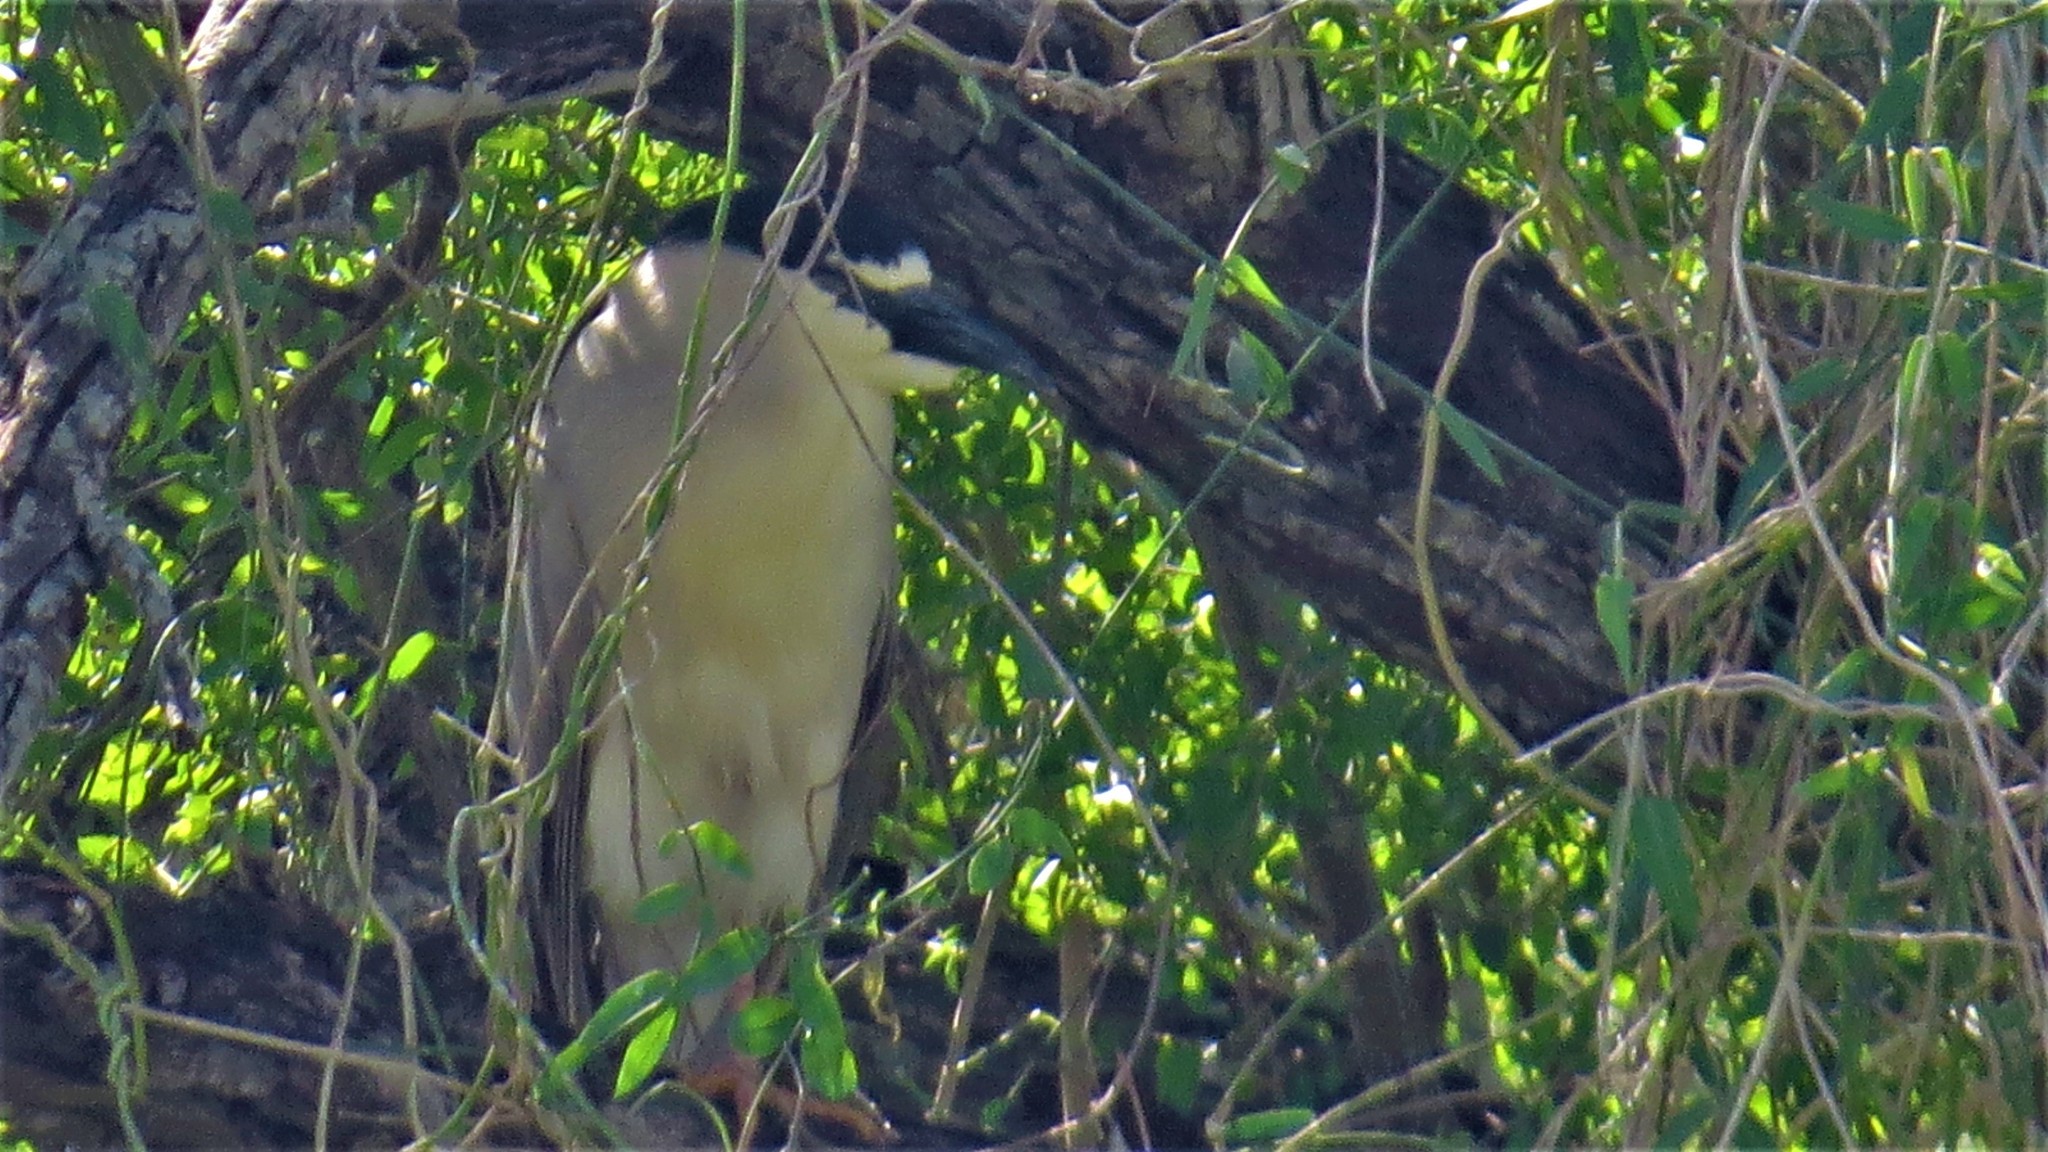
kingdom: Animalia
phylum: Chordata
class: Aves
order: Pelecaniformes
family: Ardeidae
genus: Nycticorax
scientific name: Nycticorax nycticorax
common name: Black-crowned night heron
